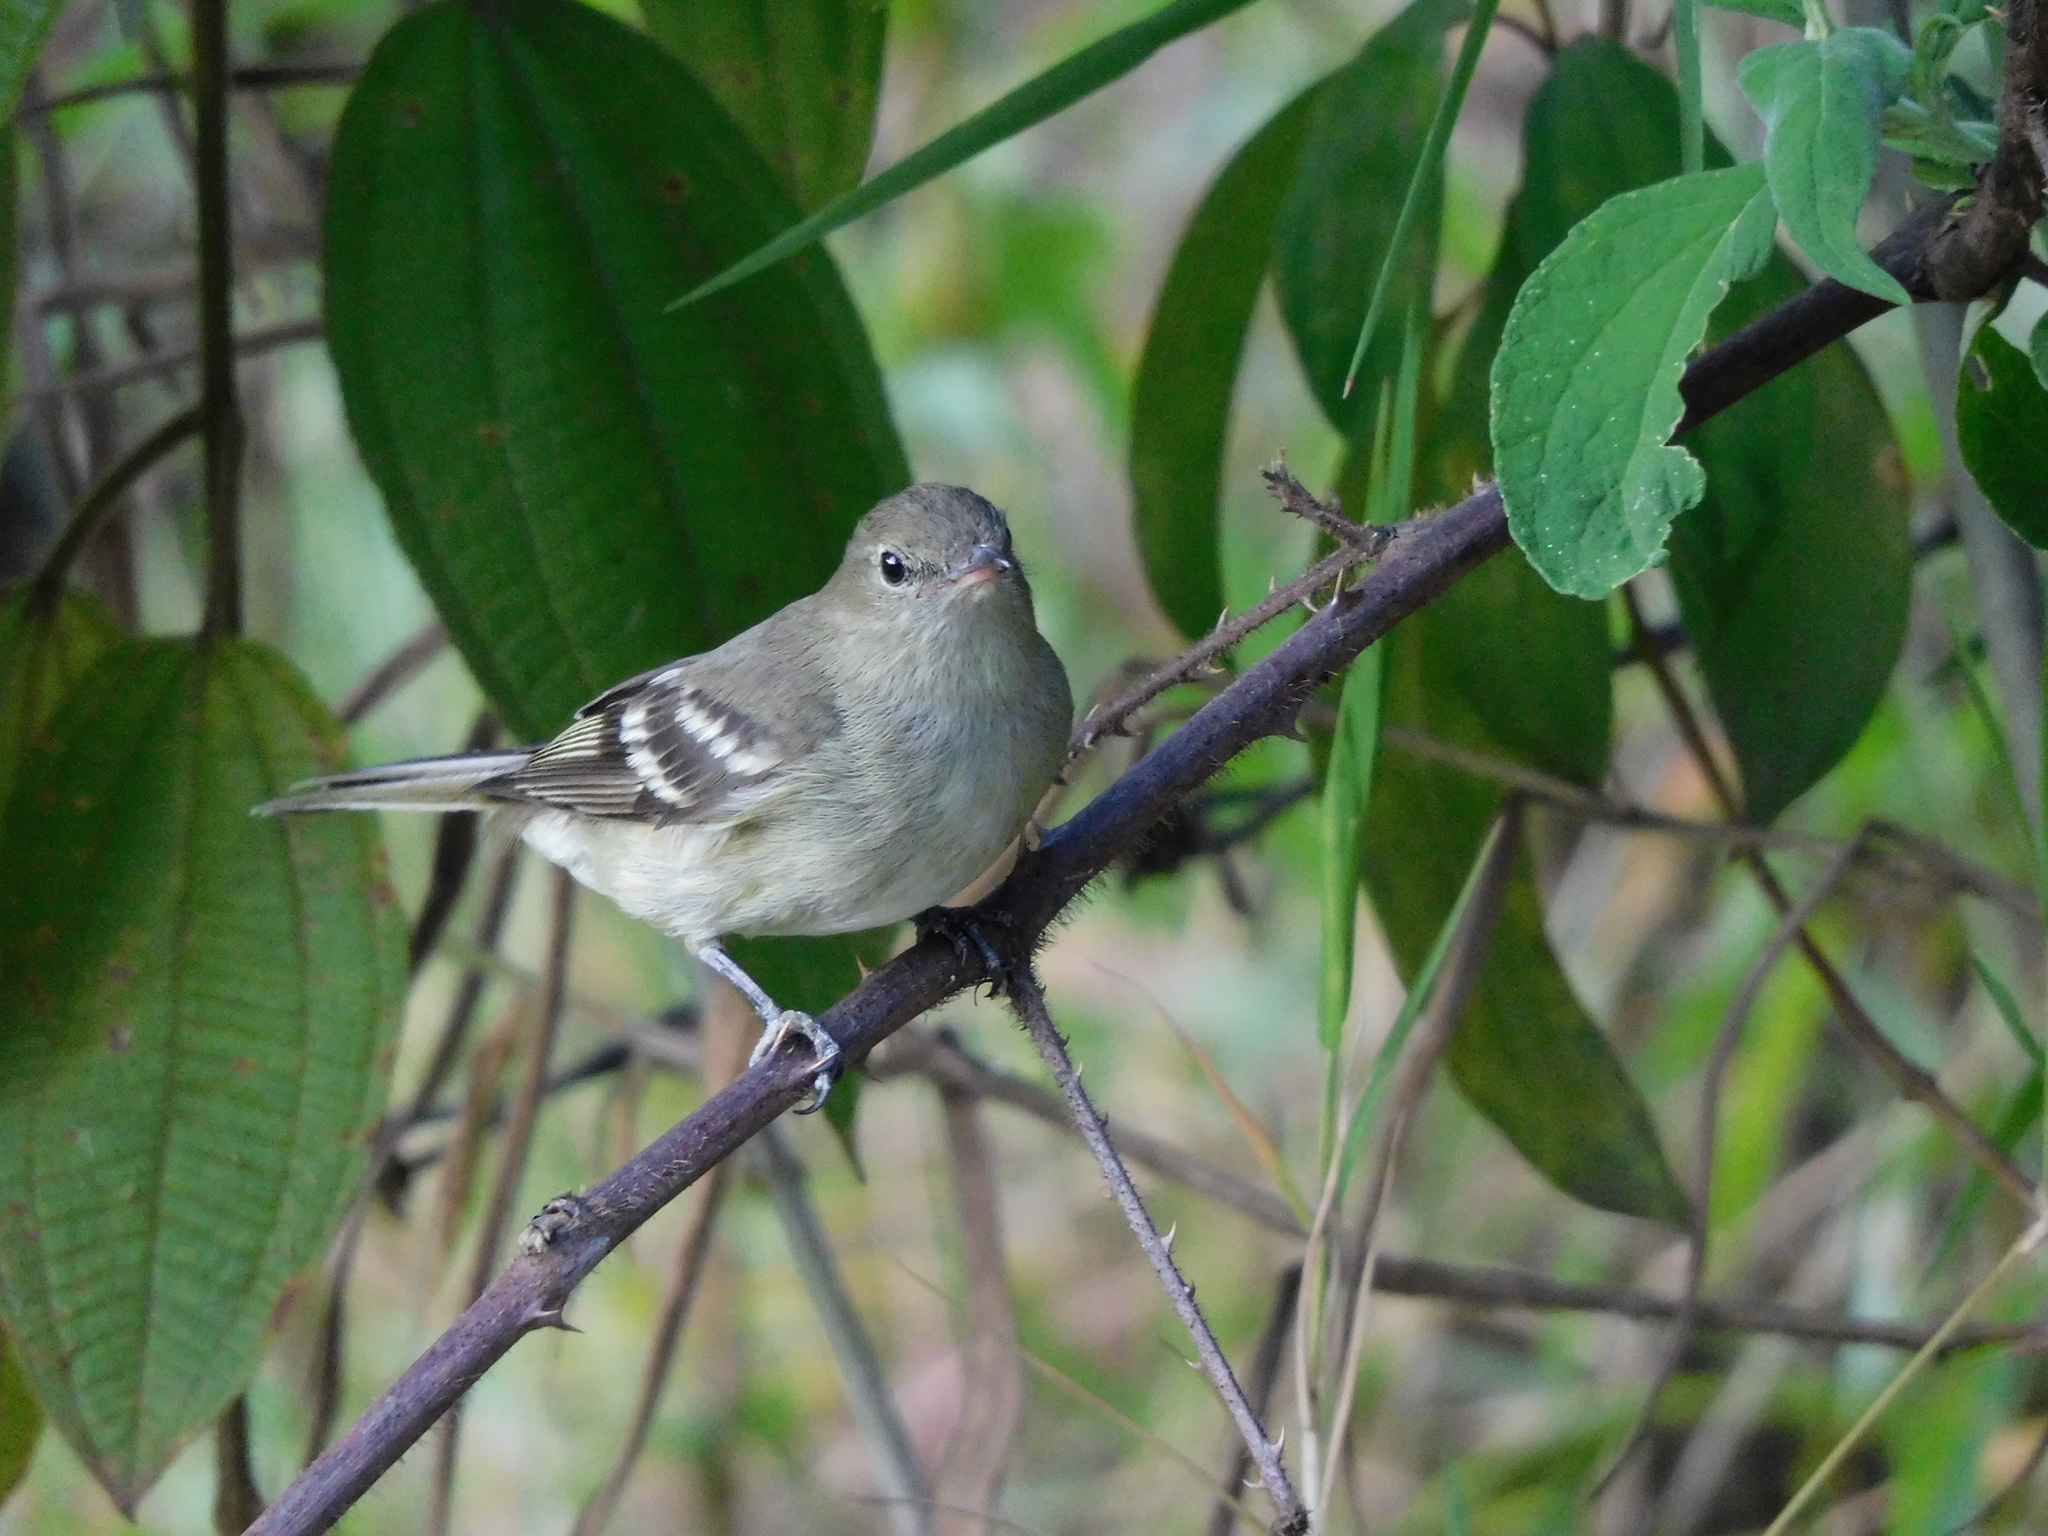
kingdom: Animalia
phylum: Chordata
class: Aves
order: Passeriformes
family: Tyrannidae
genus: Elaenia
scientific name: Elaenia frantzii
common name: Mountain elaenia
